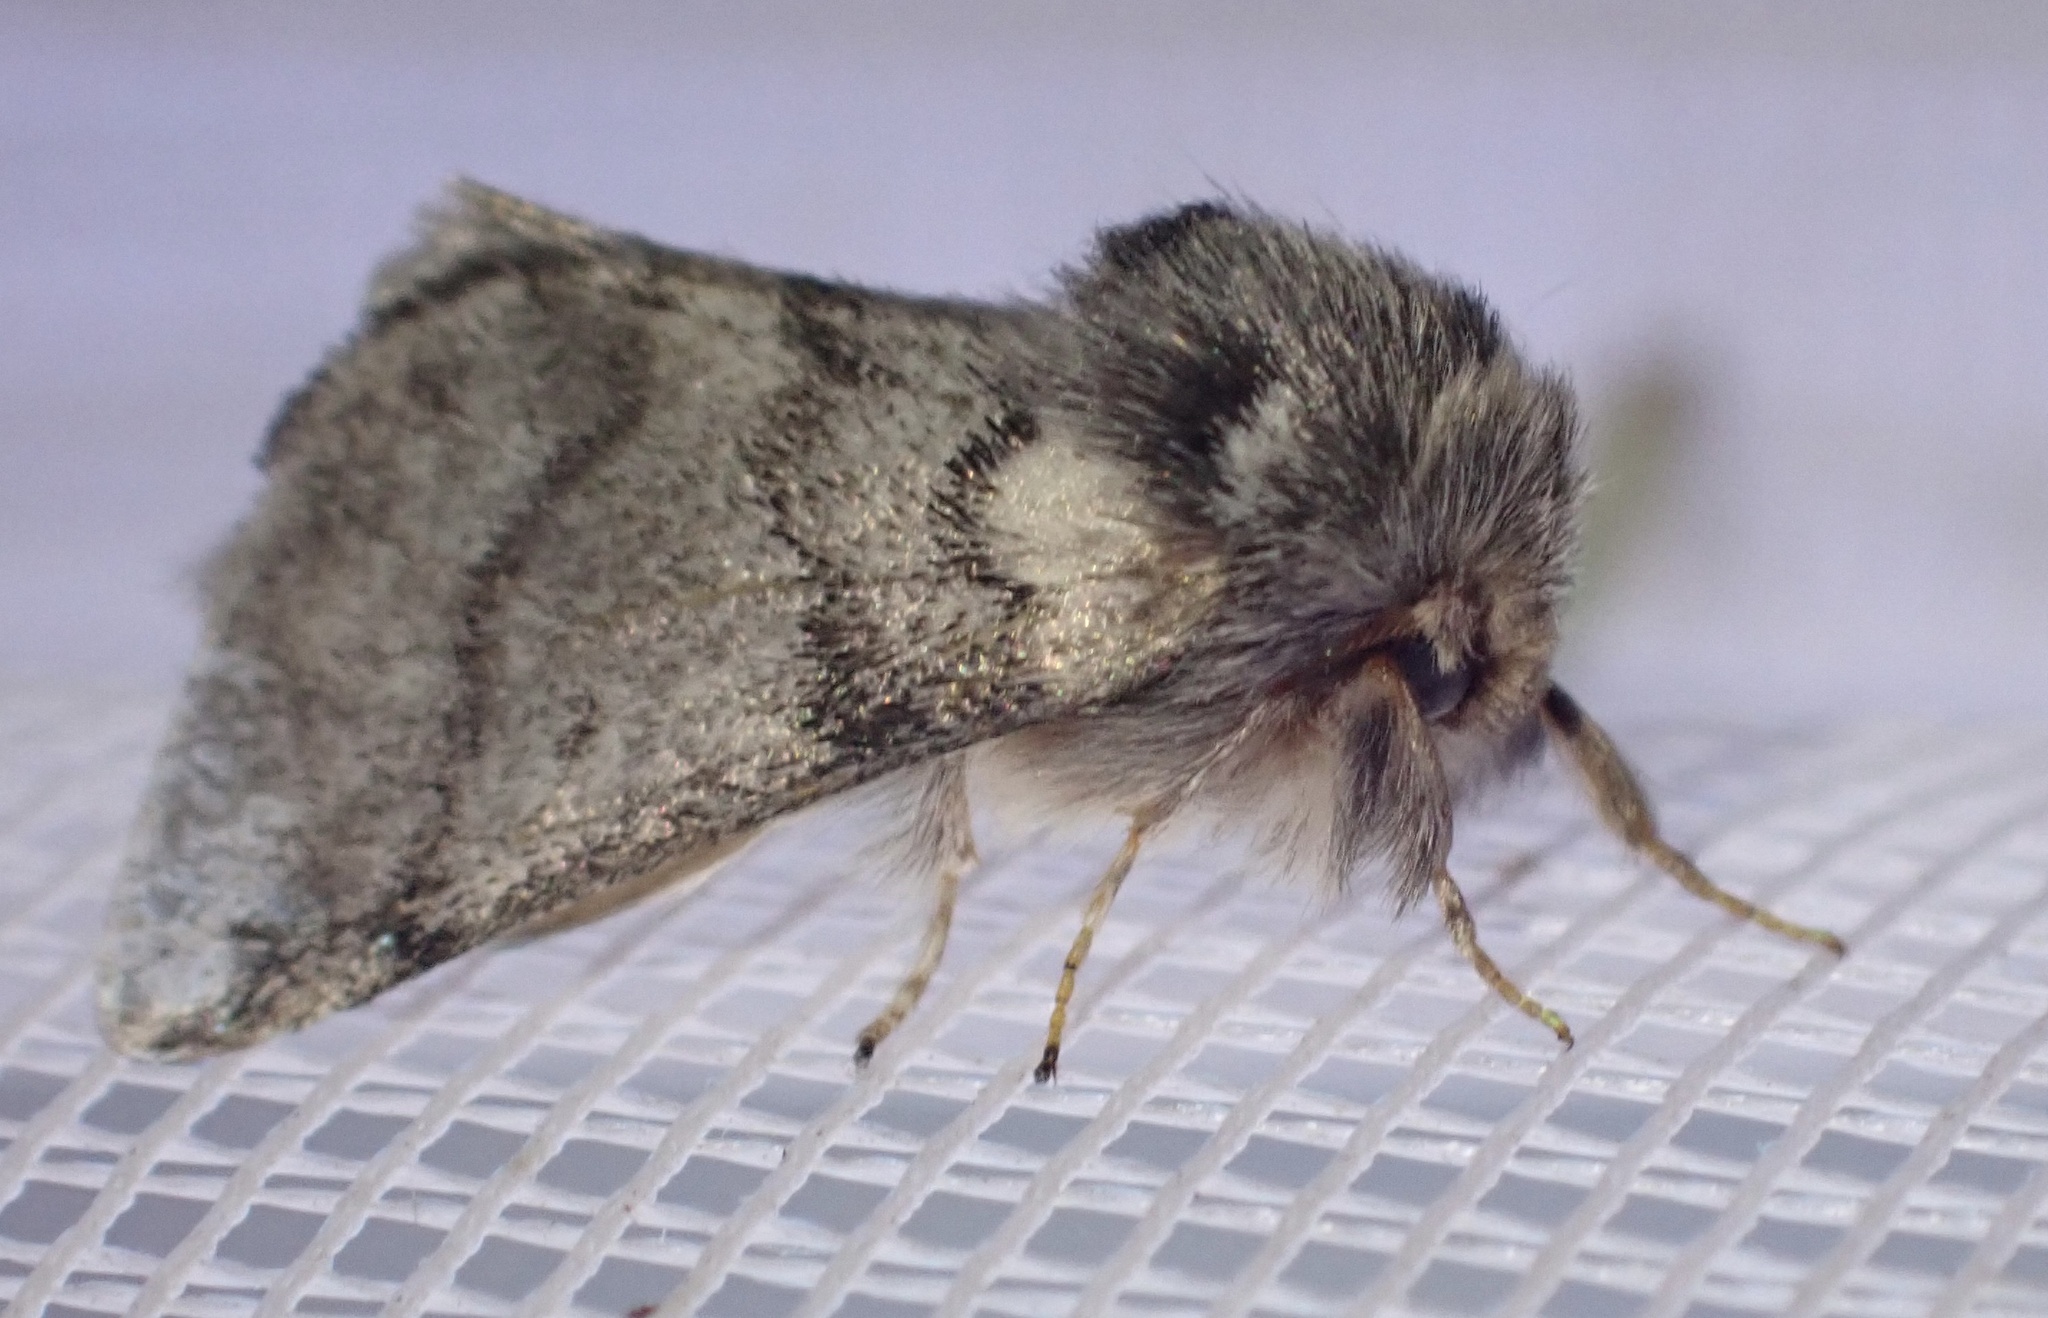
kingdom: Animalia
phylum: Arthropoda
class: Insecta
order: Lepidoptera
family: Notodontidae
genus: Thaumetopoea
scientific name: Thaumetopoea processionea
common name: Oak processionea
